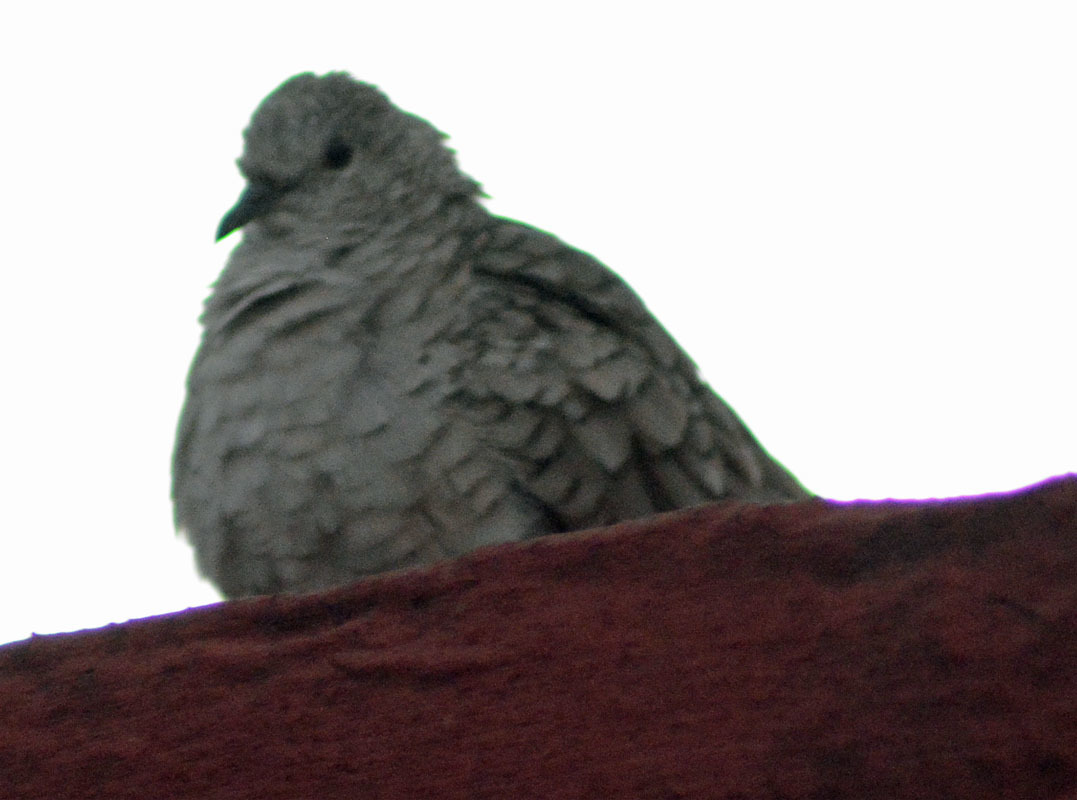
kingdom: Animalia
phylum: Chordata
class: Aves
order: Columbiformes
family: Columbidae
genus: Columbina
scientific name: Columbina inca
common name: Inca dove
